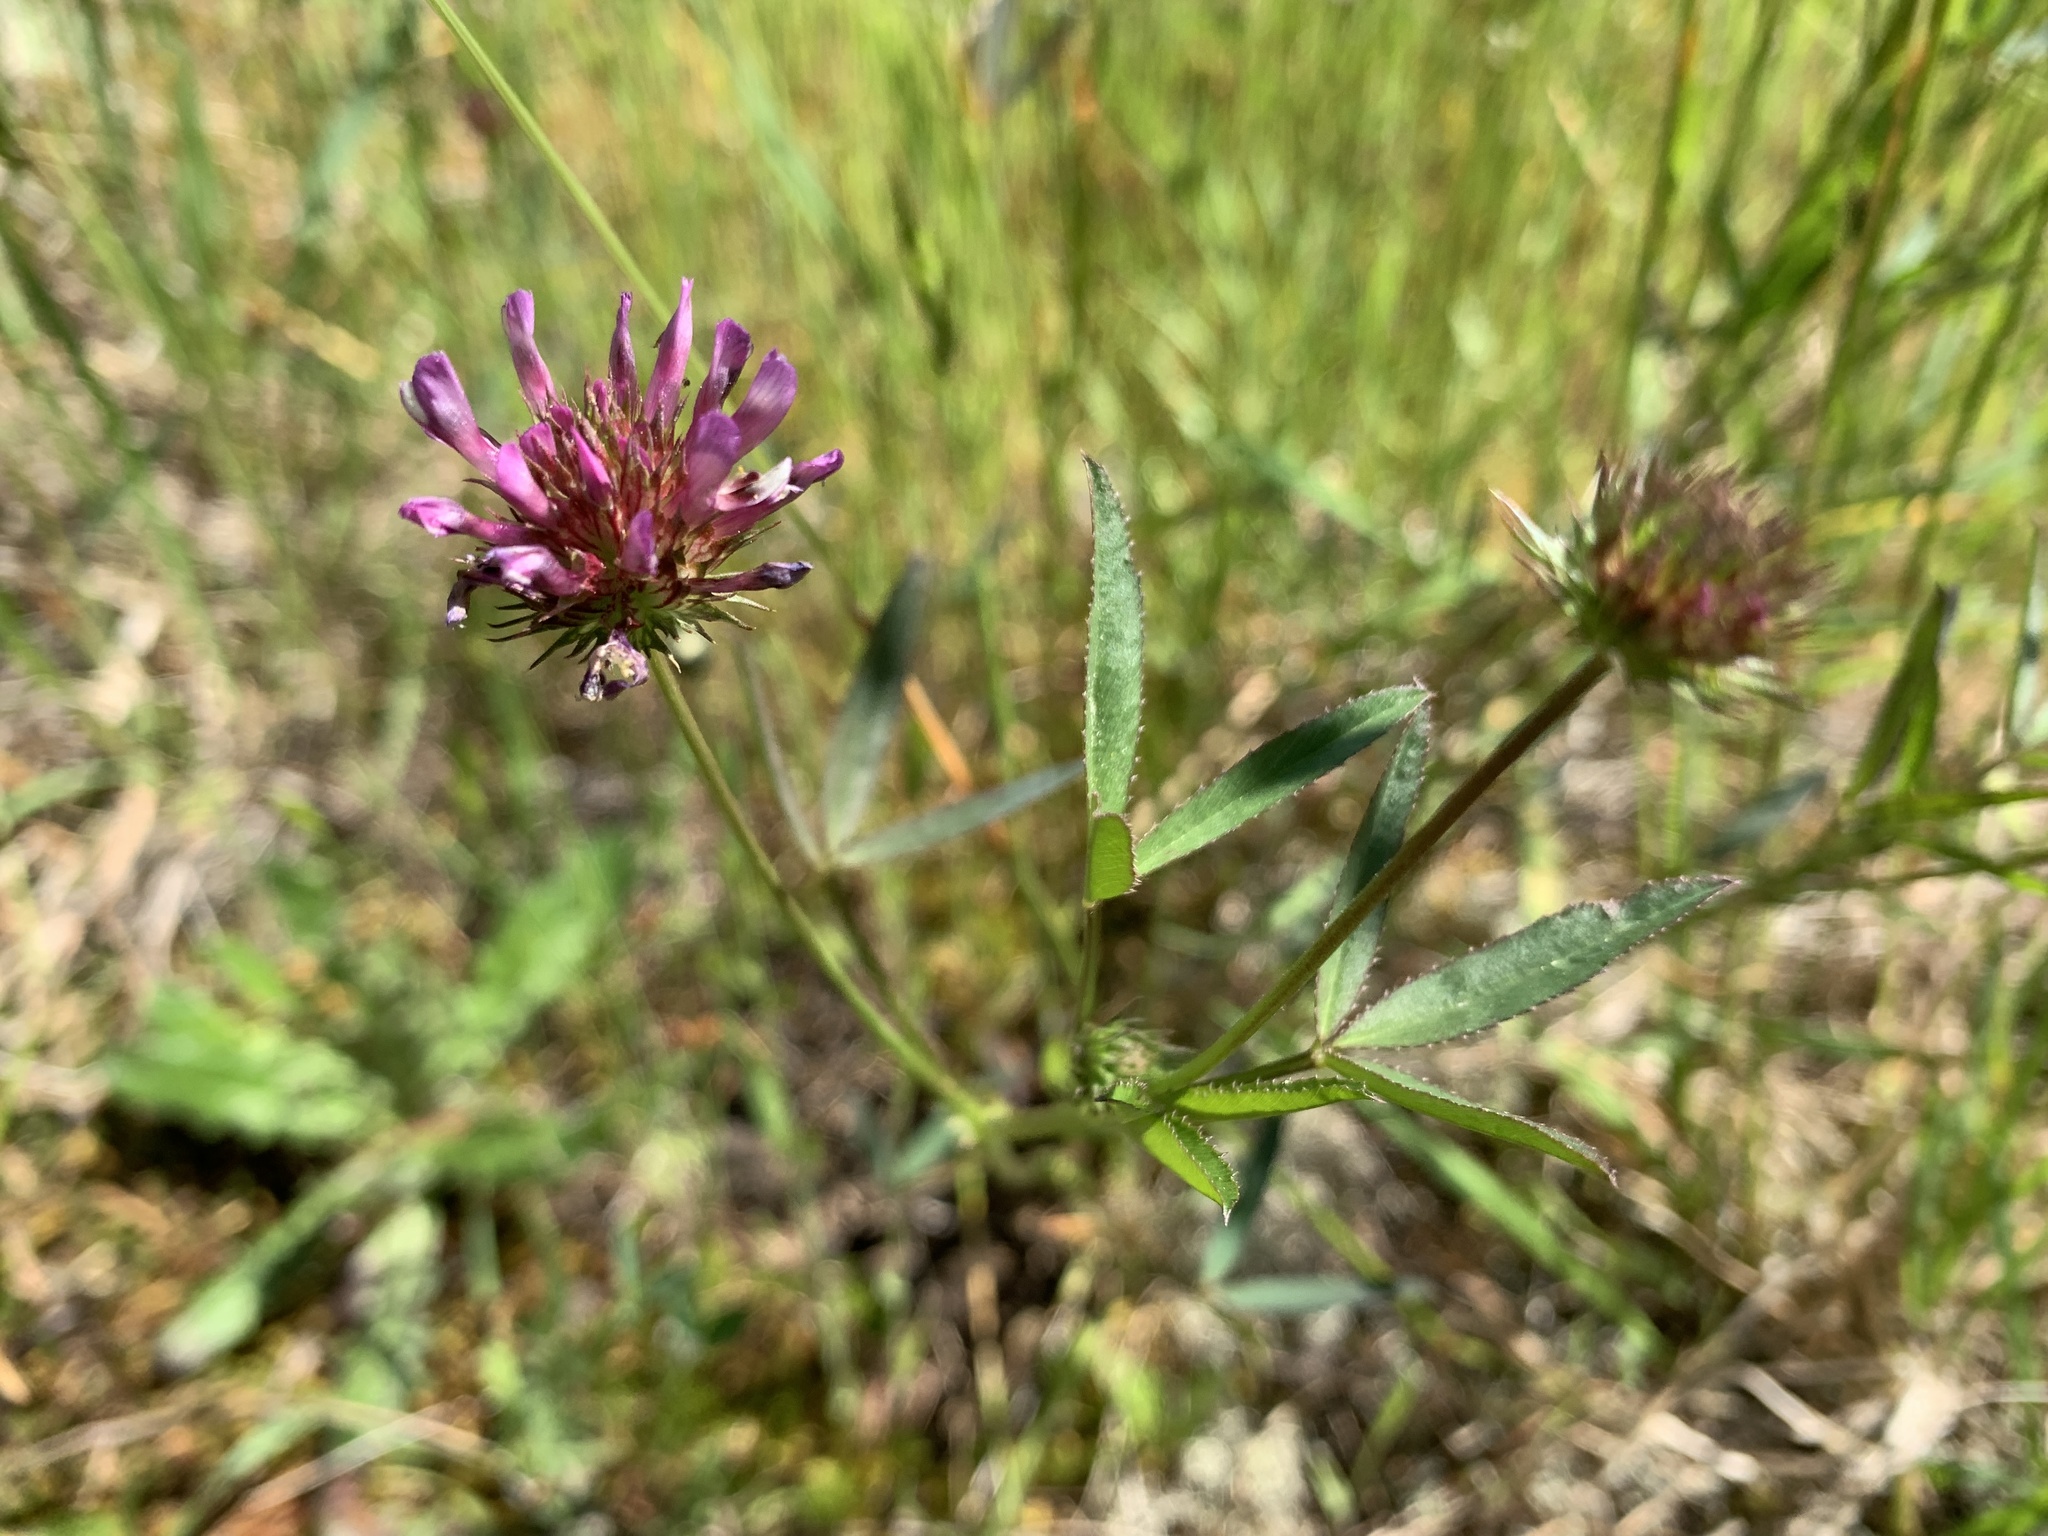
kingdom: Plantae
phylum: Tracheophyta
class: Magnoliopsida
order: Fabales
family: Fabaceae
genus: Trifolium
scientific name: Trifolium willdenovii
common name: Tomcat clover
